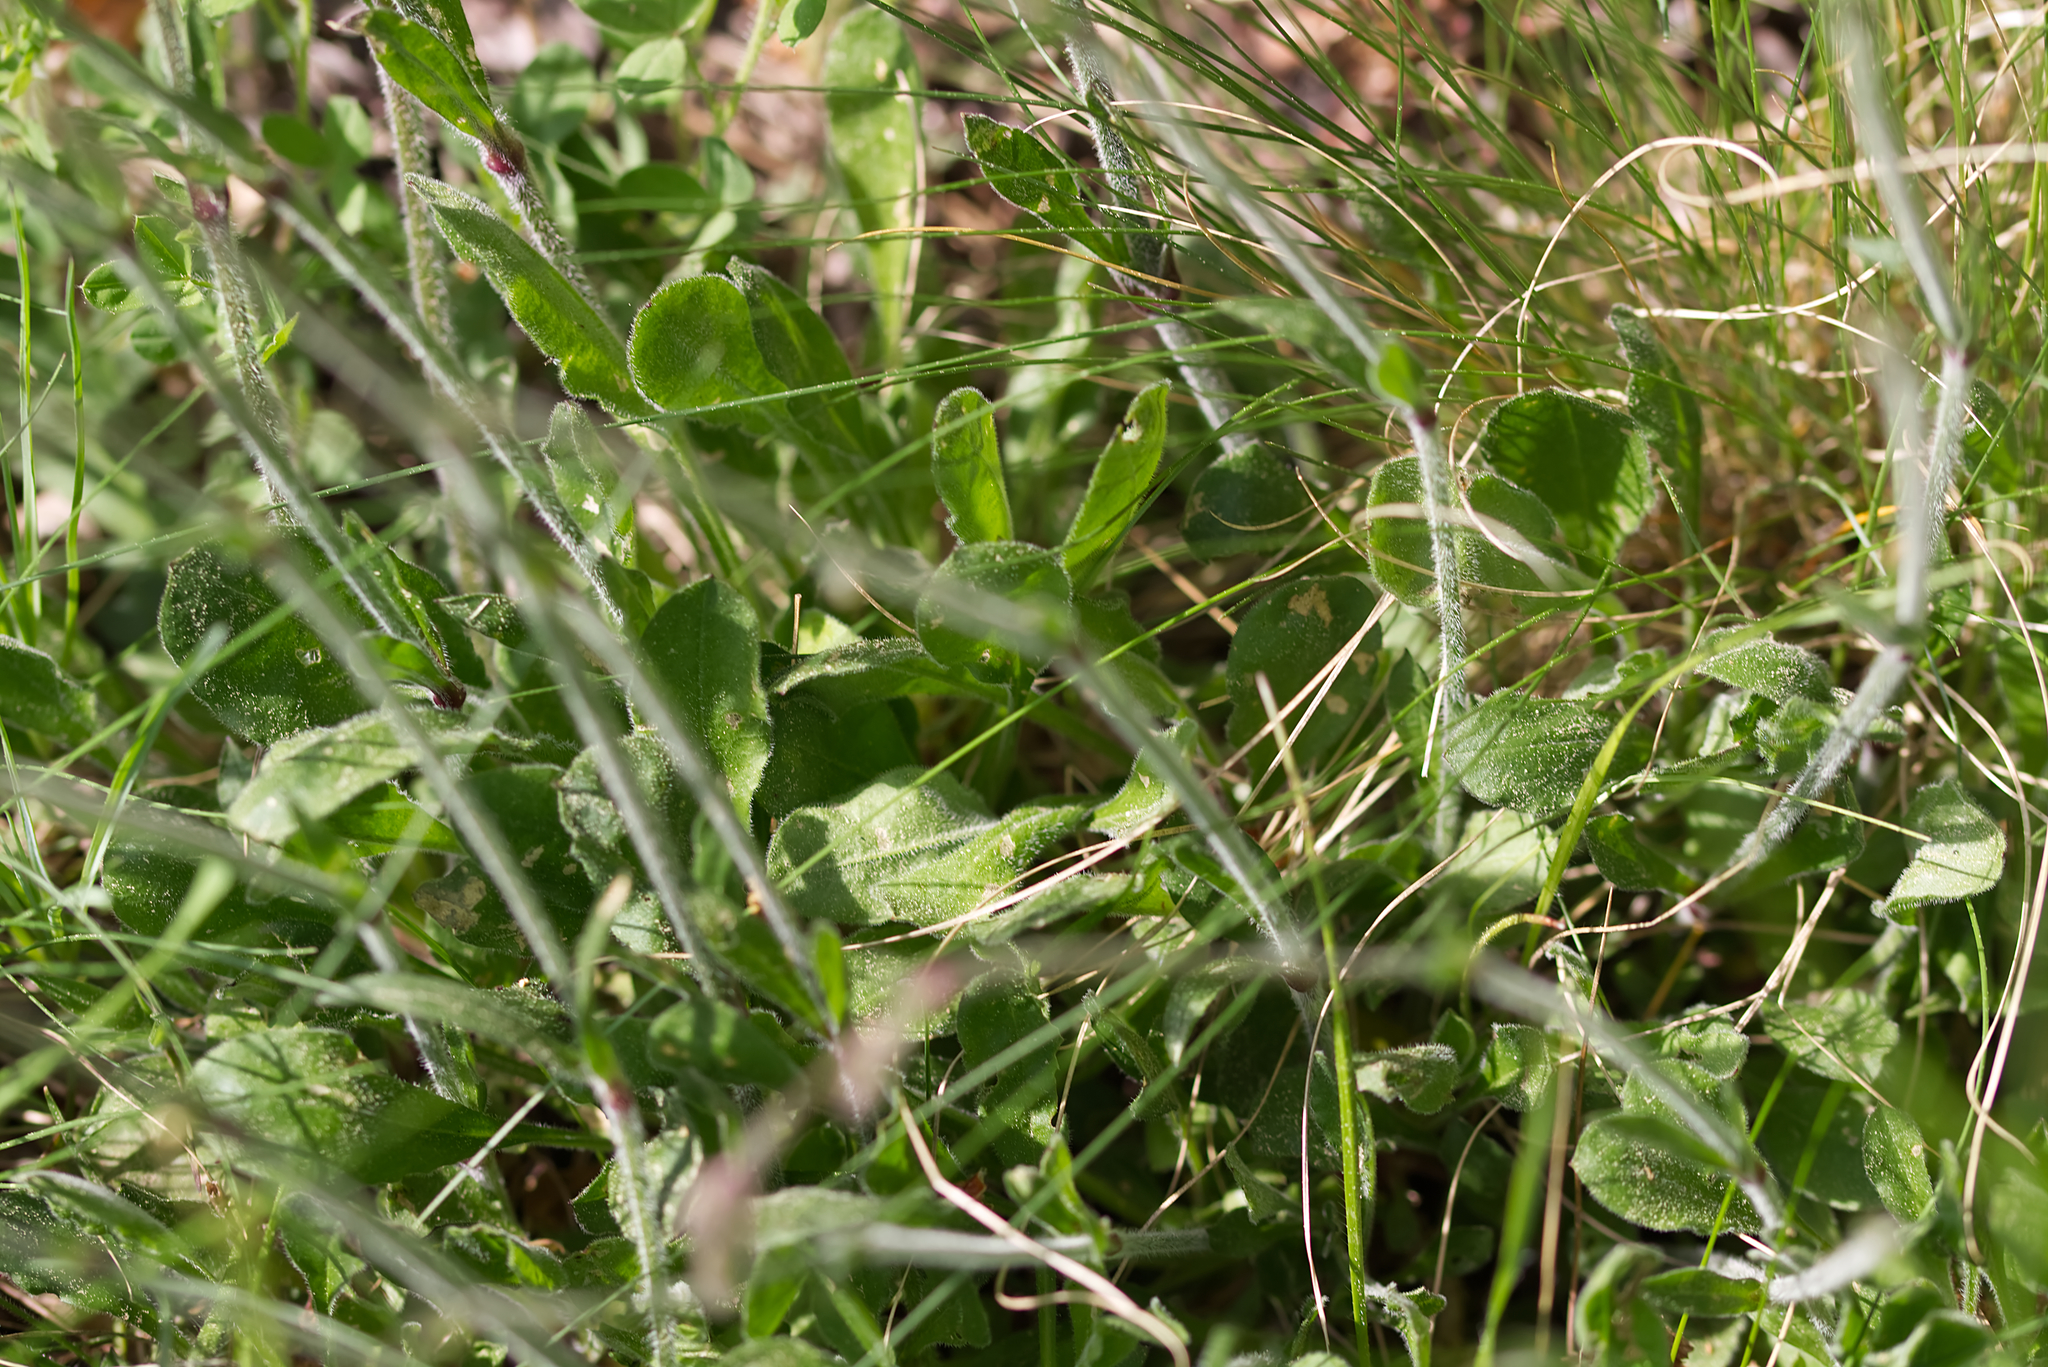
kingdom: Plantae
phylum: Tracheophyta
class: Magnoliopsida
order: Caryophyllales
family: Caryophyllaceae
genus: Silene
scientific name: Silene nutans
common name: Nottingham catchfly
